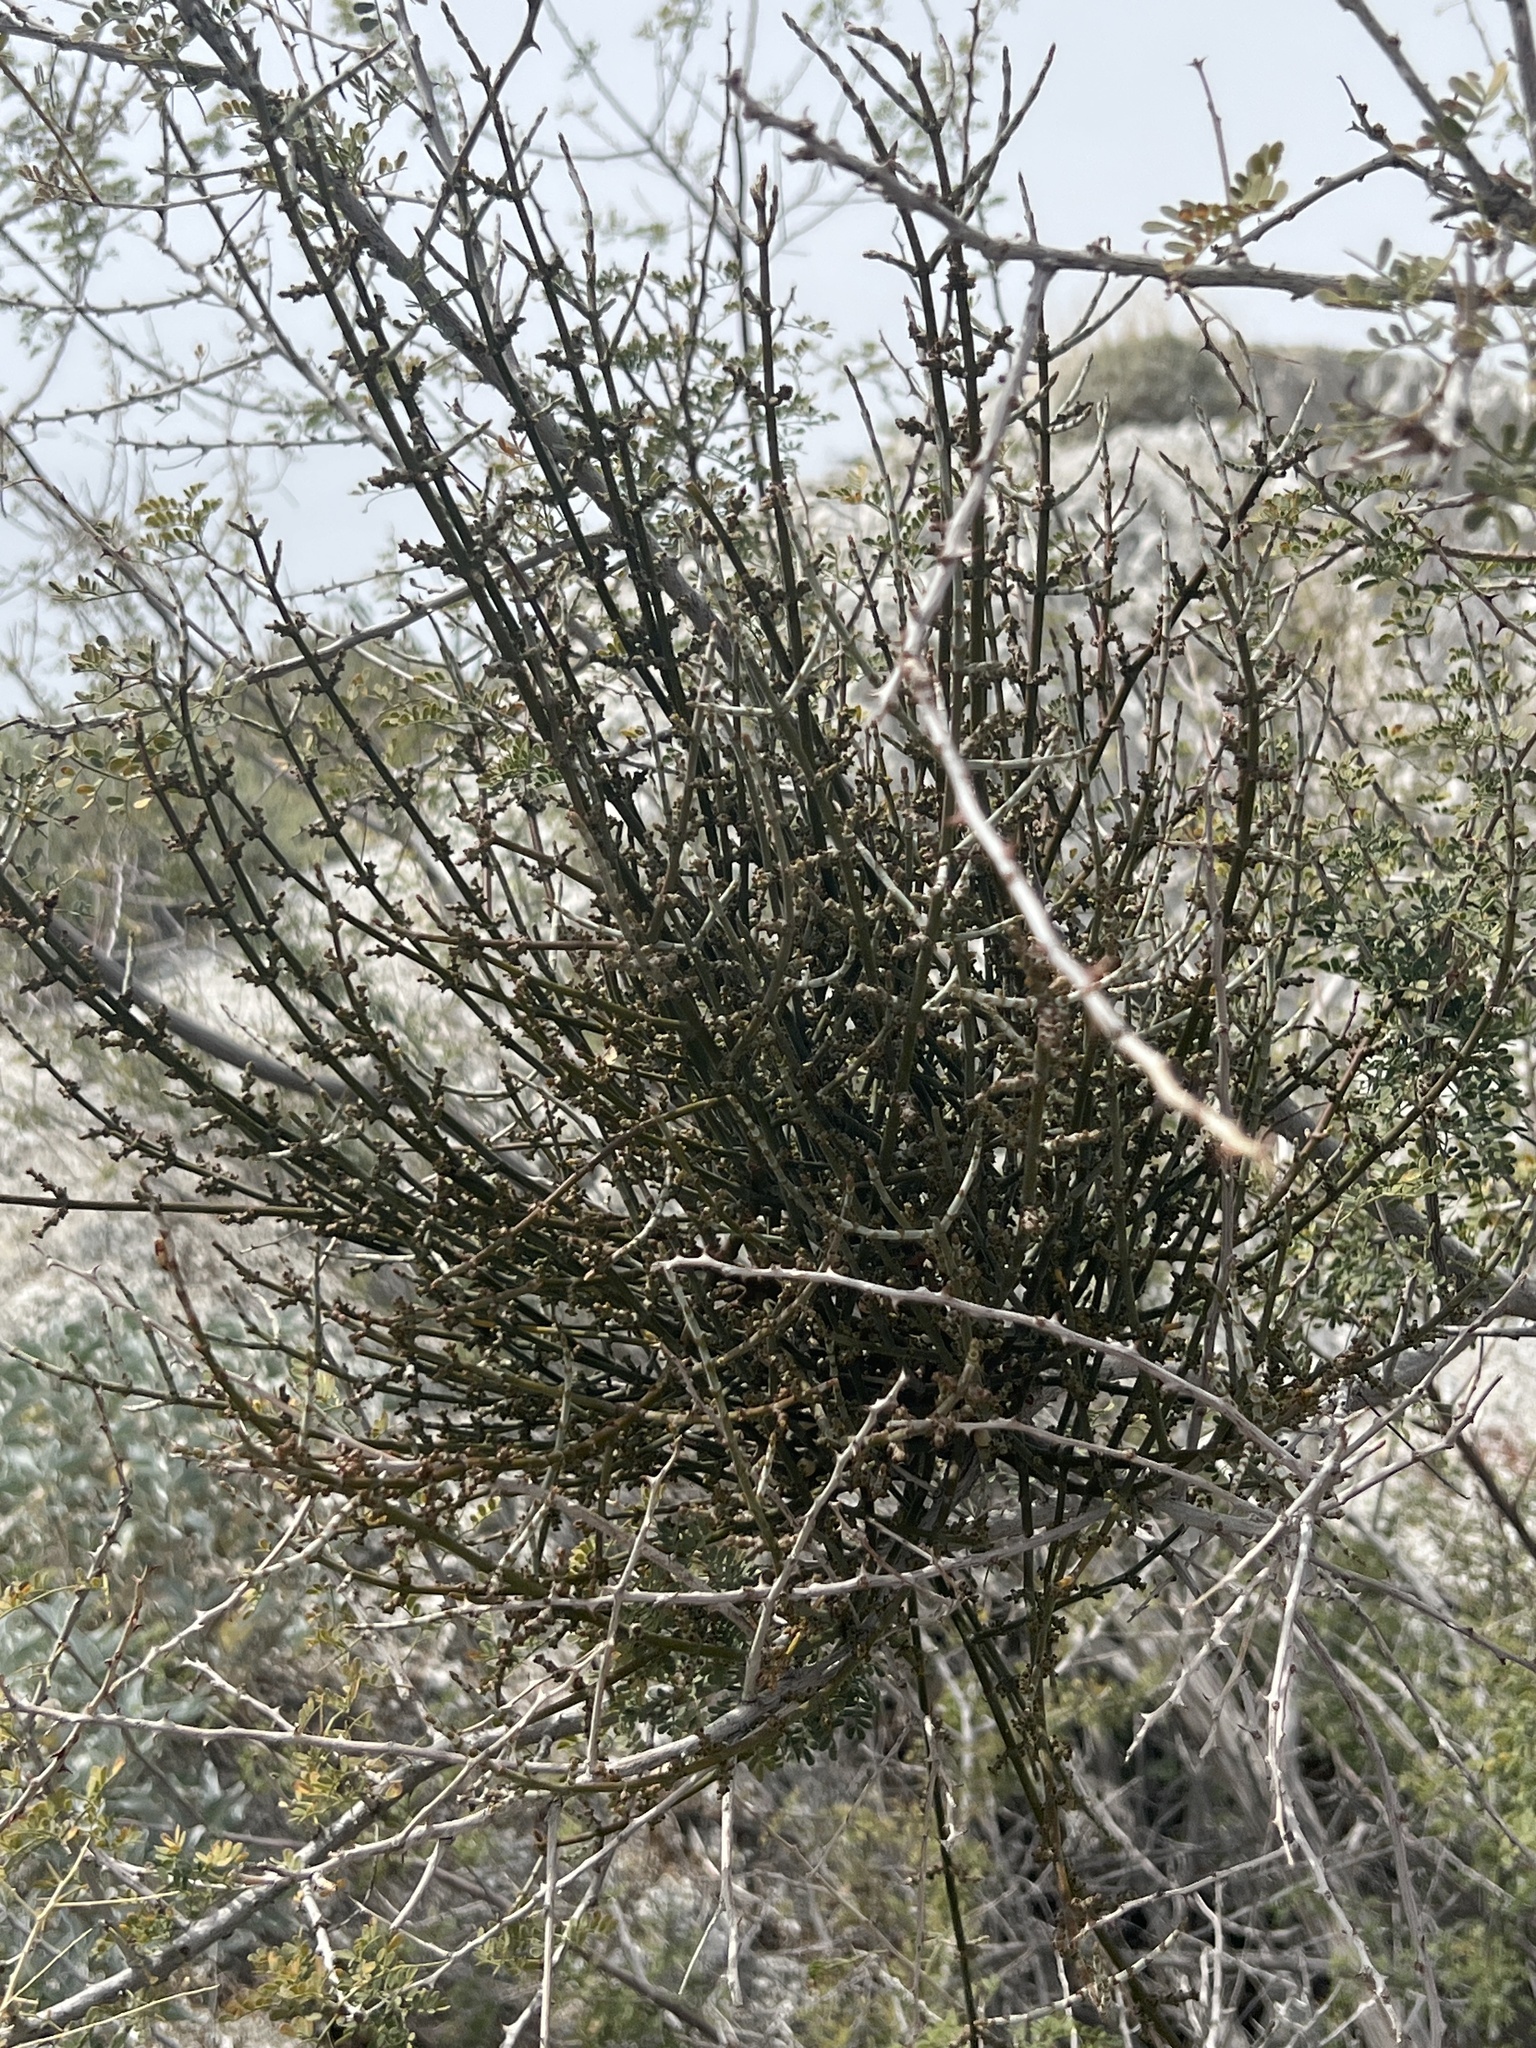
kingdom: Plantae
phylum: Tracheophyta
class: Magnoliopsida
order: Santalales
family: Viscaceae
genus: Phoradendron
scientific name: Phoradendron californicum
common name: Acacia mistletoe
